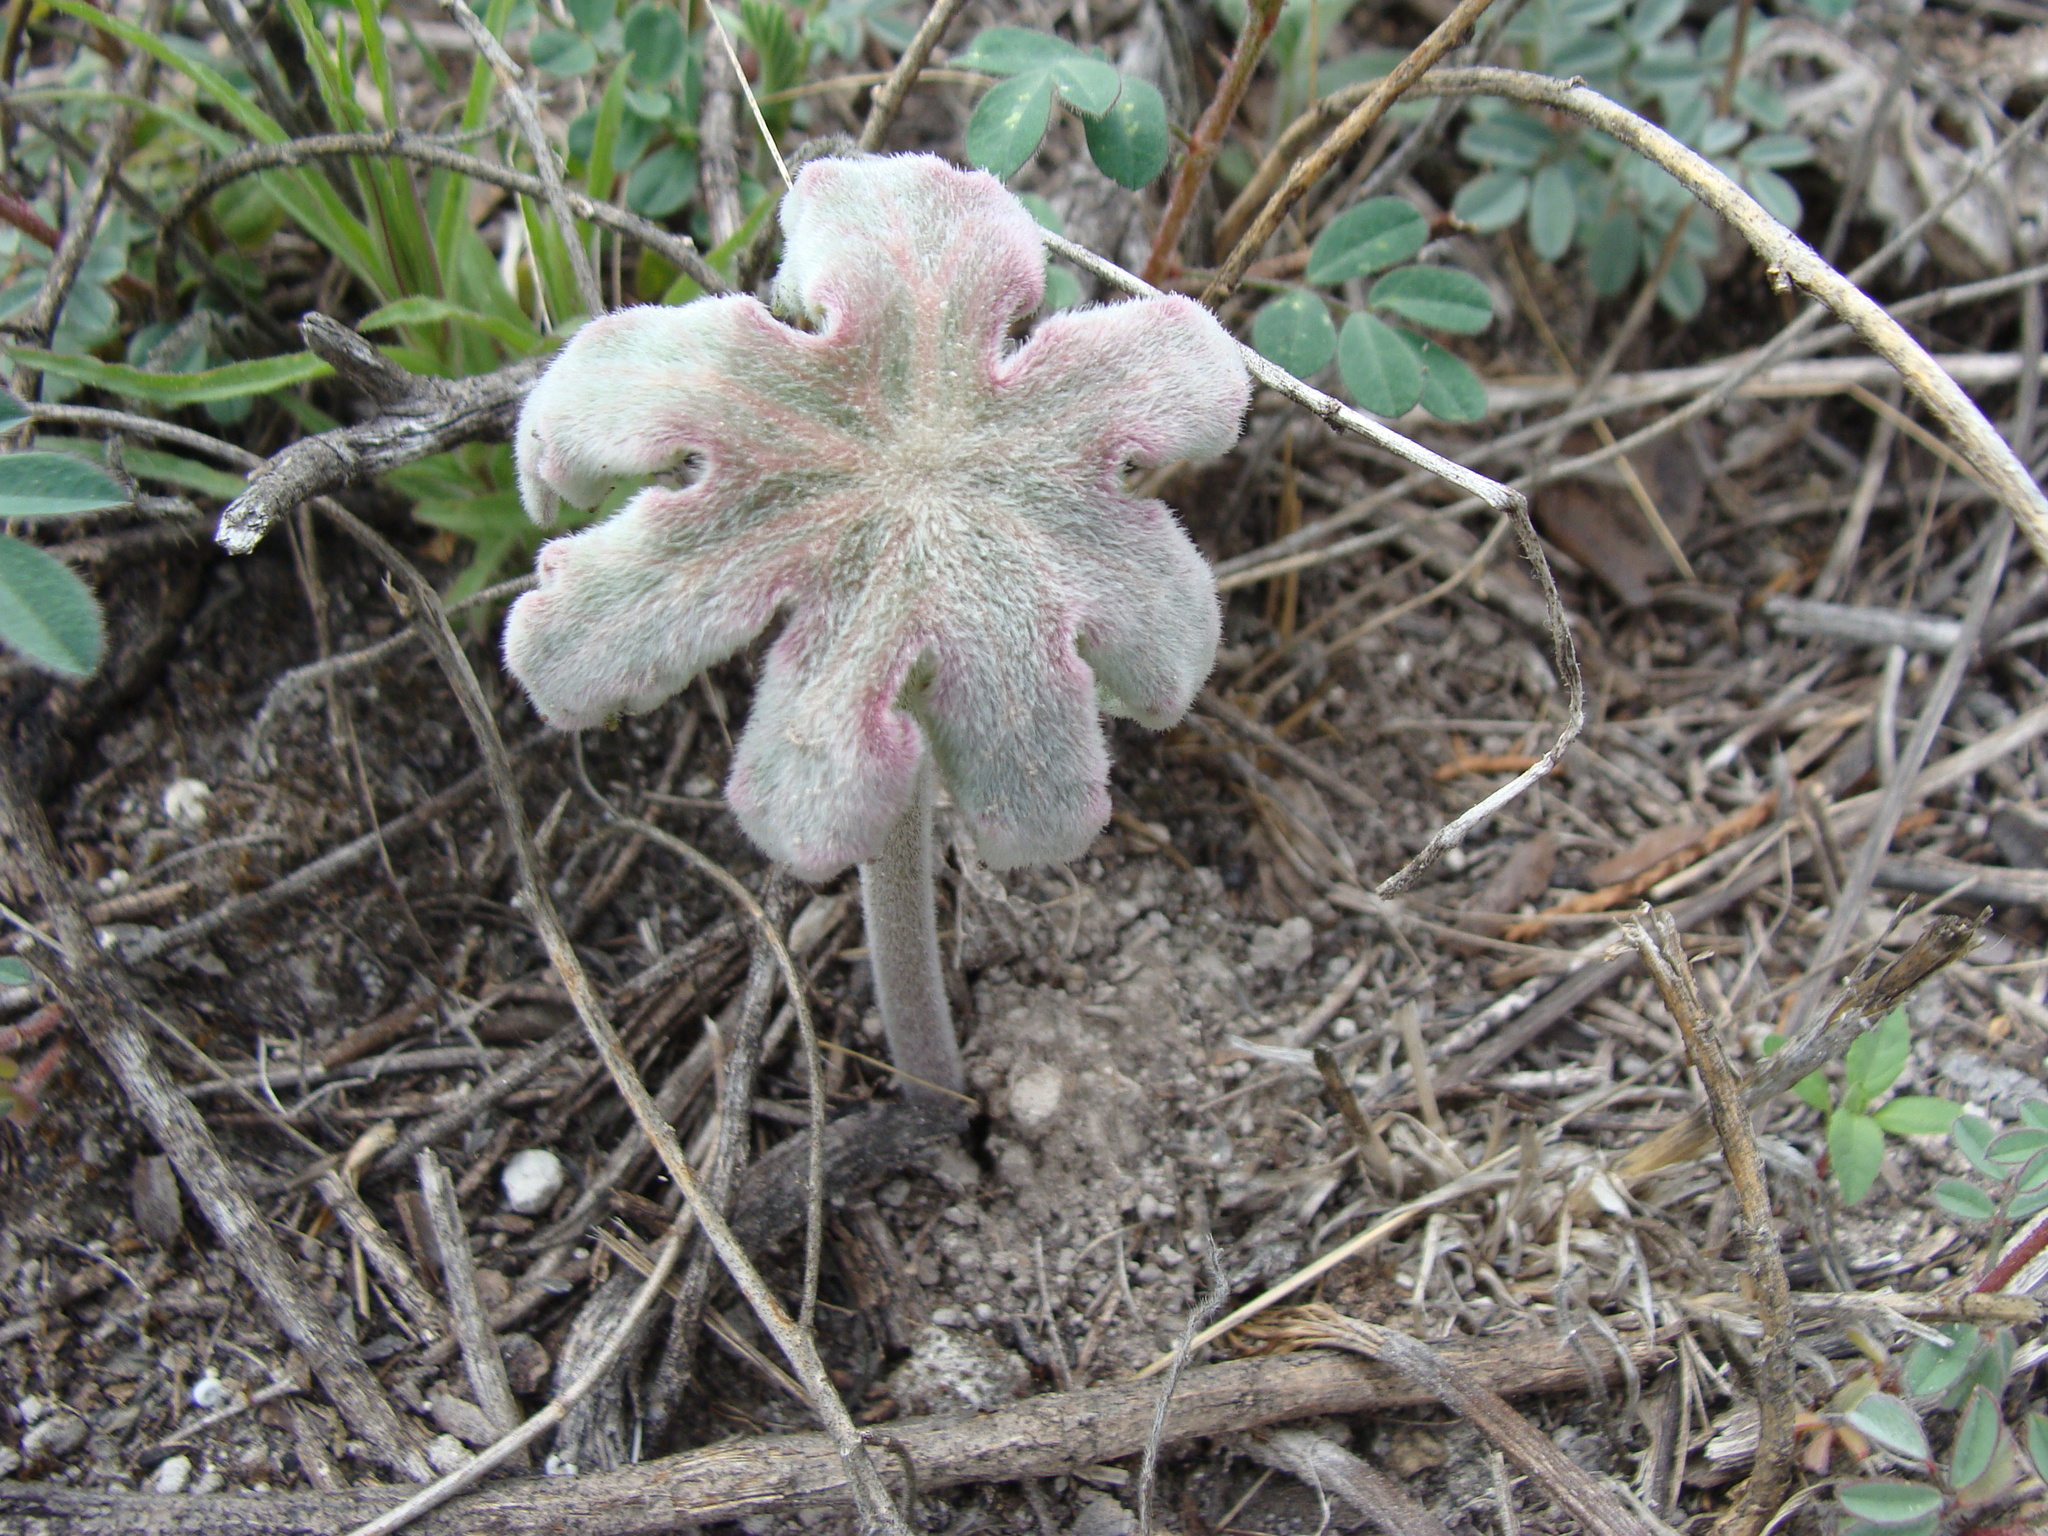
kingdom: Plantae
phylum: Tracheophyta
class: Magnoliopsida
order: Asterales
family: Asteraceae
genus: Psacalium
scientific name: Psacalium peltatum
